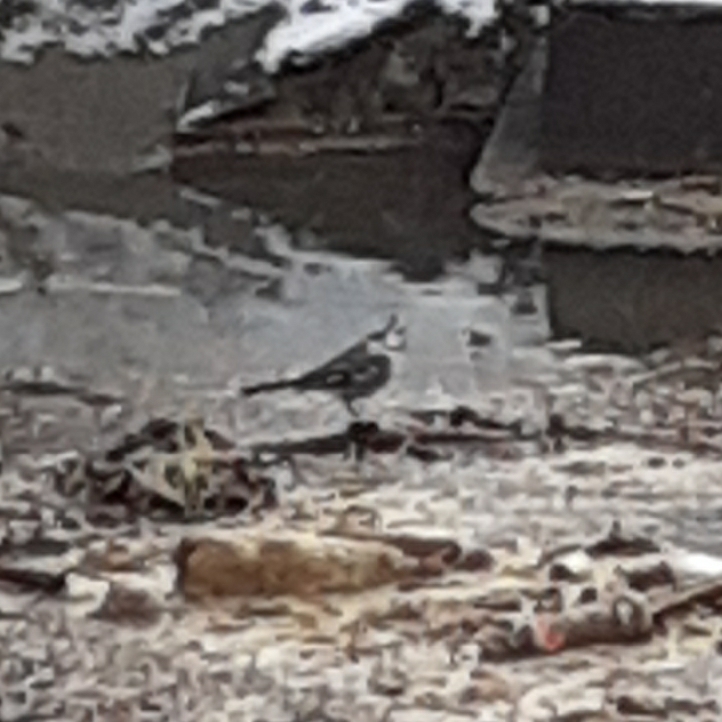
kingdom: Animalia
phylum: Chordata
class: Aves
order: Passeriformes
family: Motacillidae
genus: Motacilla
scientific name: Motacilla alba
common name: White wagtail
